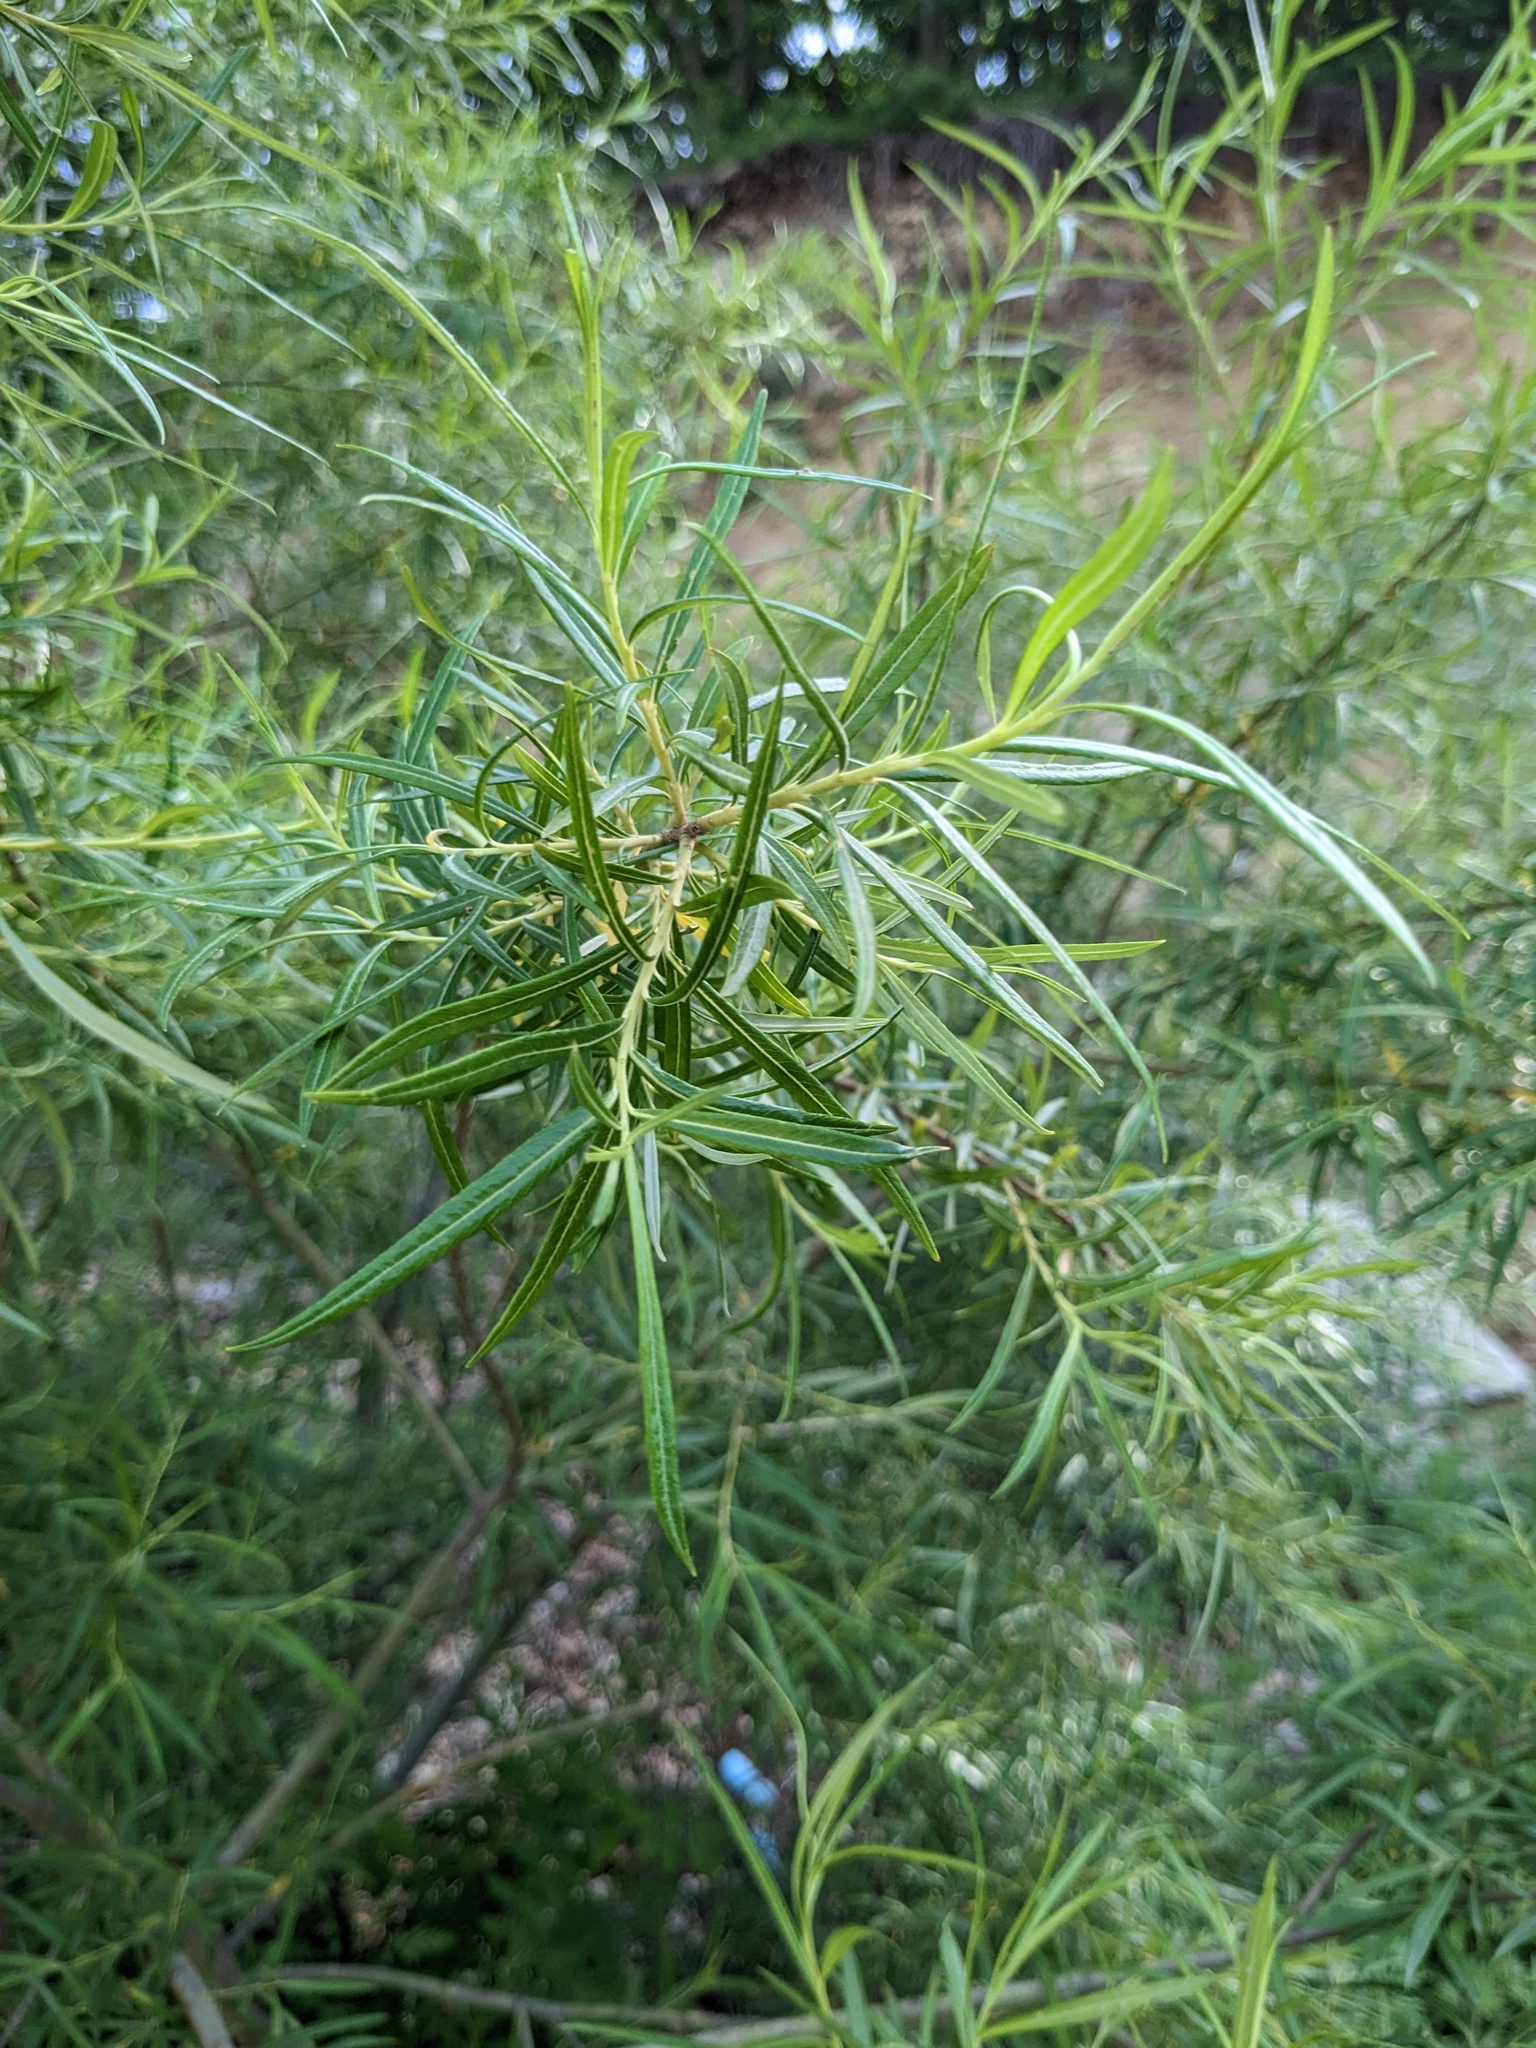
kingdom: Plantae
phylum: Tracheophyta
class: Magnoliopsida
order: Malpighiales
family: Salicaceae
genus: Salix
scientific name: Salix schwerinii
